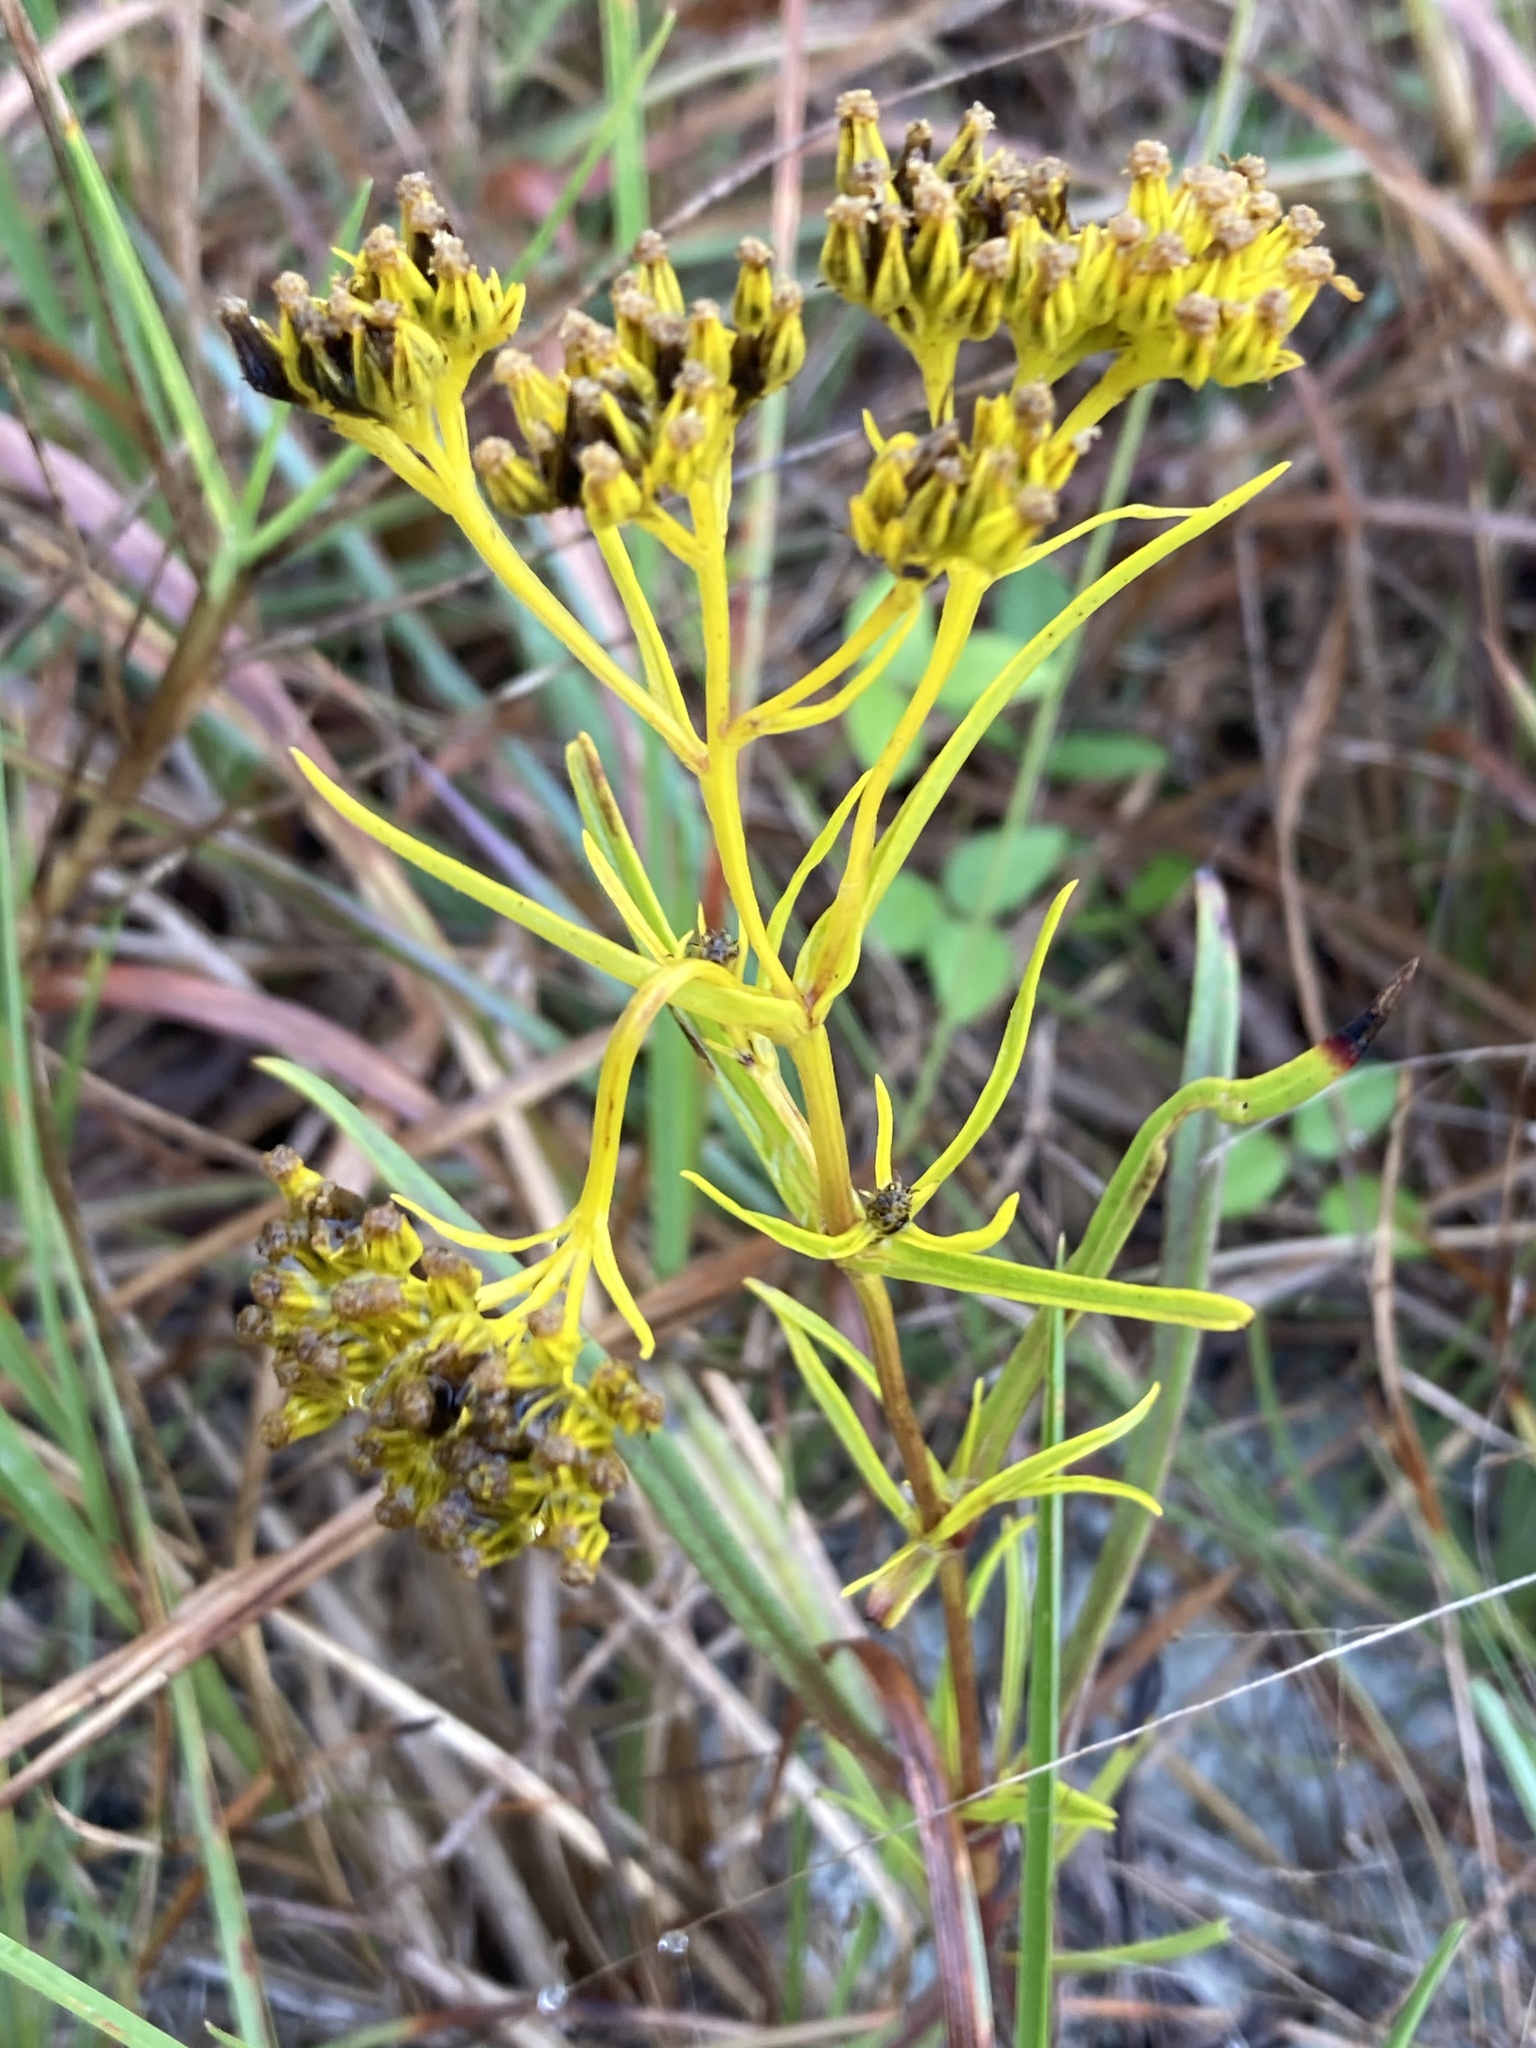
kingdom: Plantae
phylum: Tracheophyta
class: Magnoliopsida
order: Asterales
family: Asteraceae
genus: Flaveria
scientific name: Flaveria linearis
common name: Yellowtop
